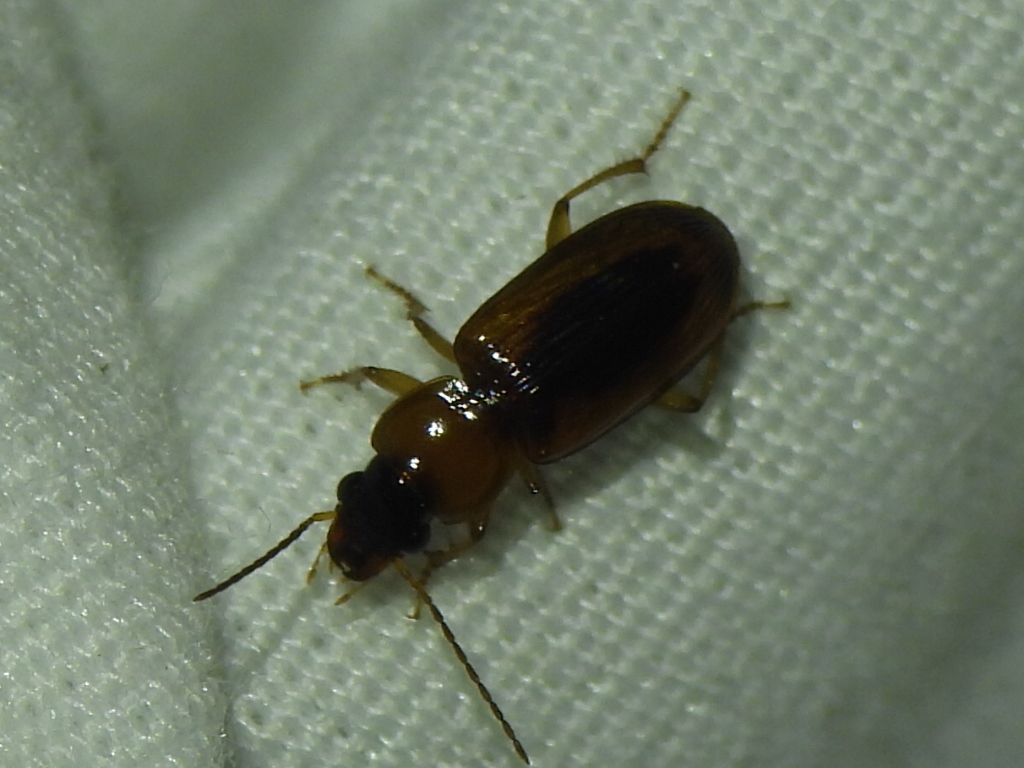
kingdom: Animalia
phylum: Arthropoda
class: Insecta
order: Coleoptera
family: Carabidae
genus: Stenolophus
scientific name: Stenolophus dissimilis
